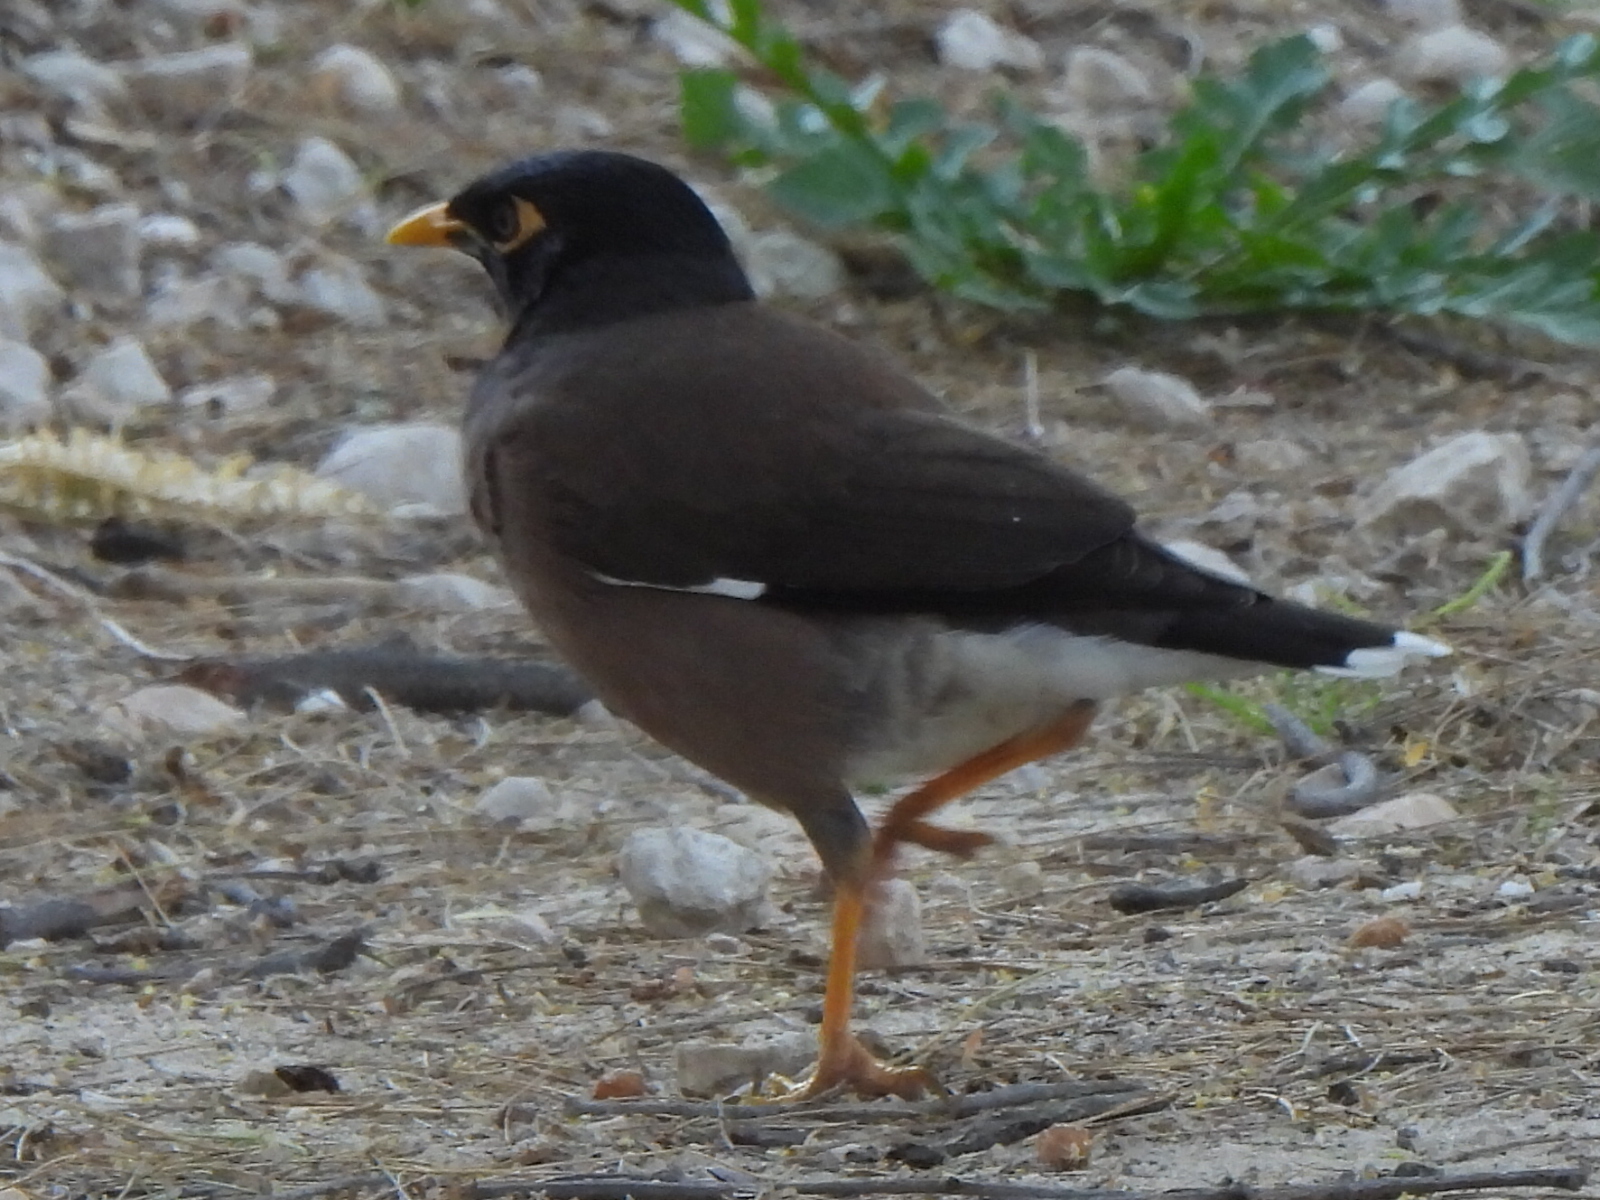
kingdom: Animalia
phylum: Chordata
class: Aves
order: Passeriformes
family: Sturnidae
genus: Acridotheres
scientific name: Acridotheres tristis
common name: Common myna
